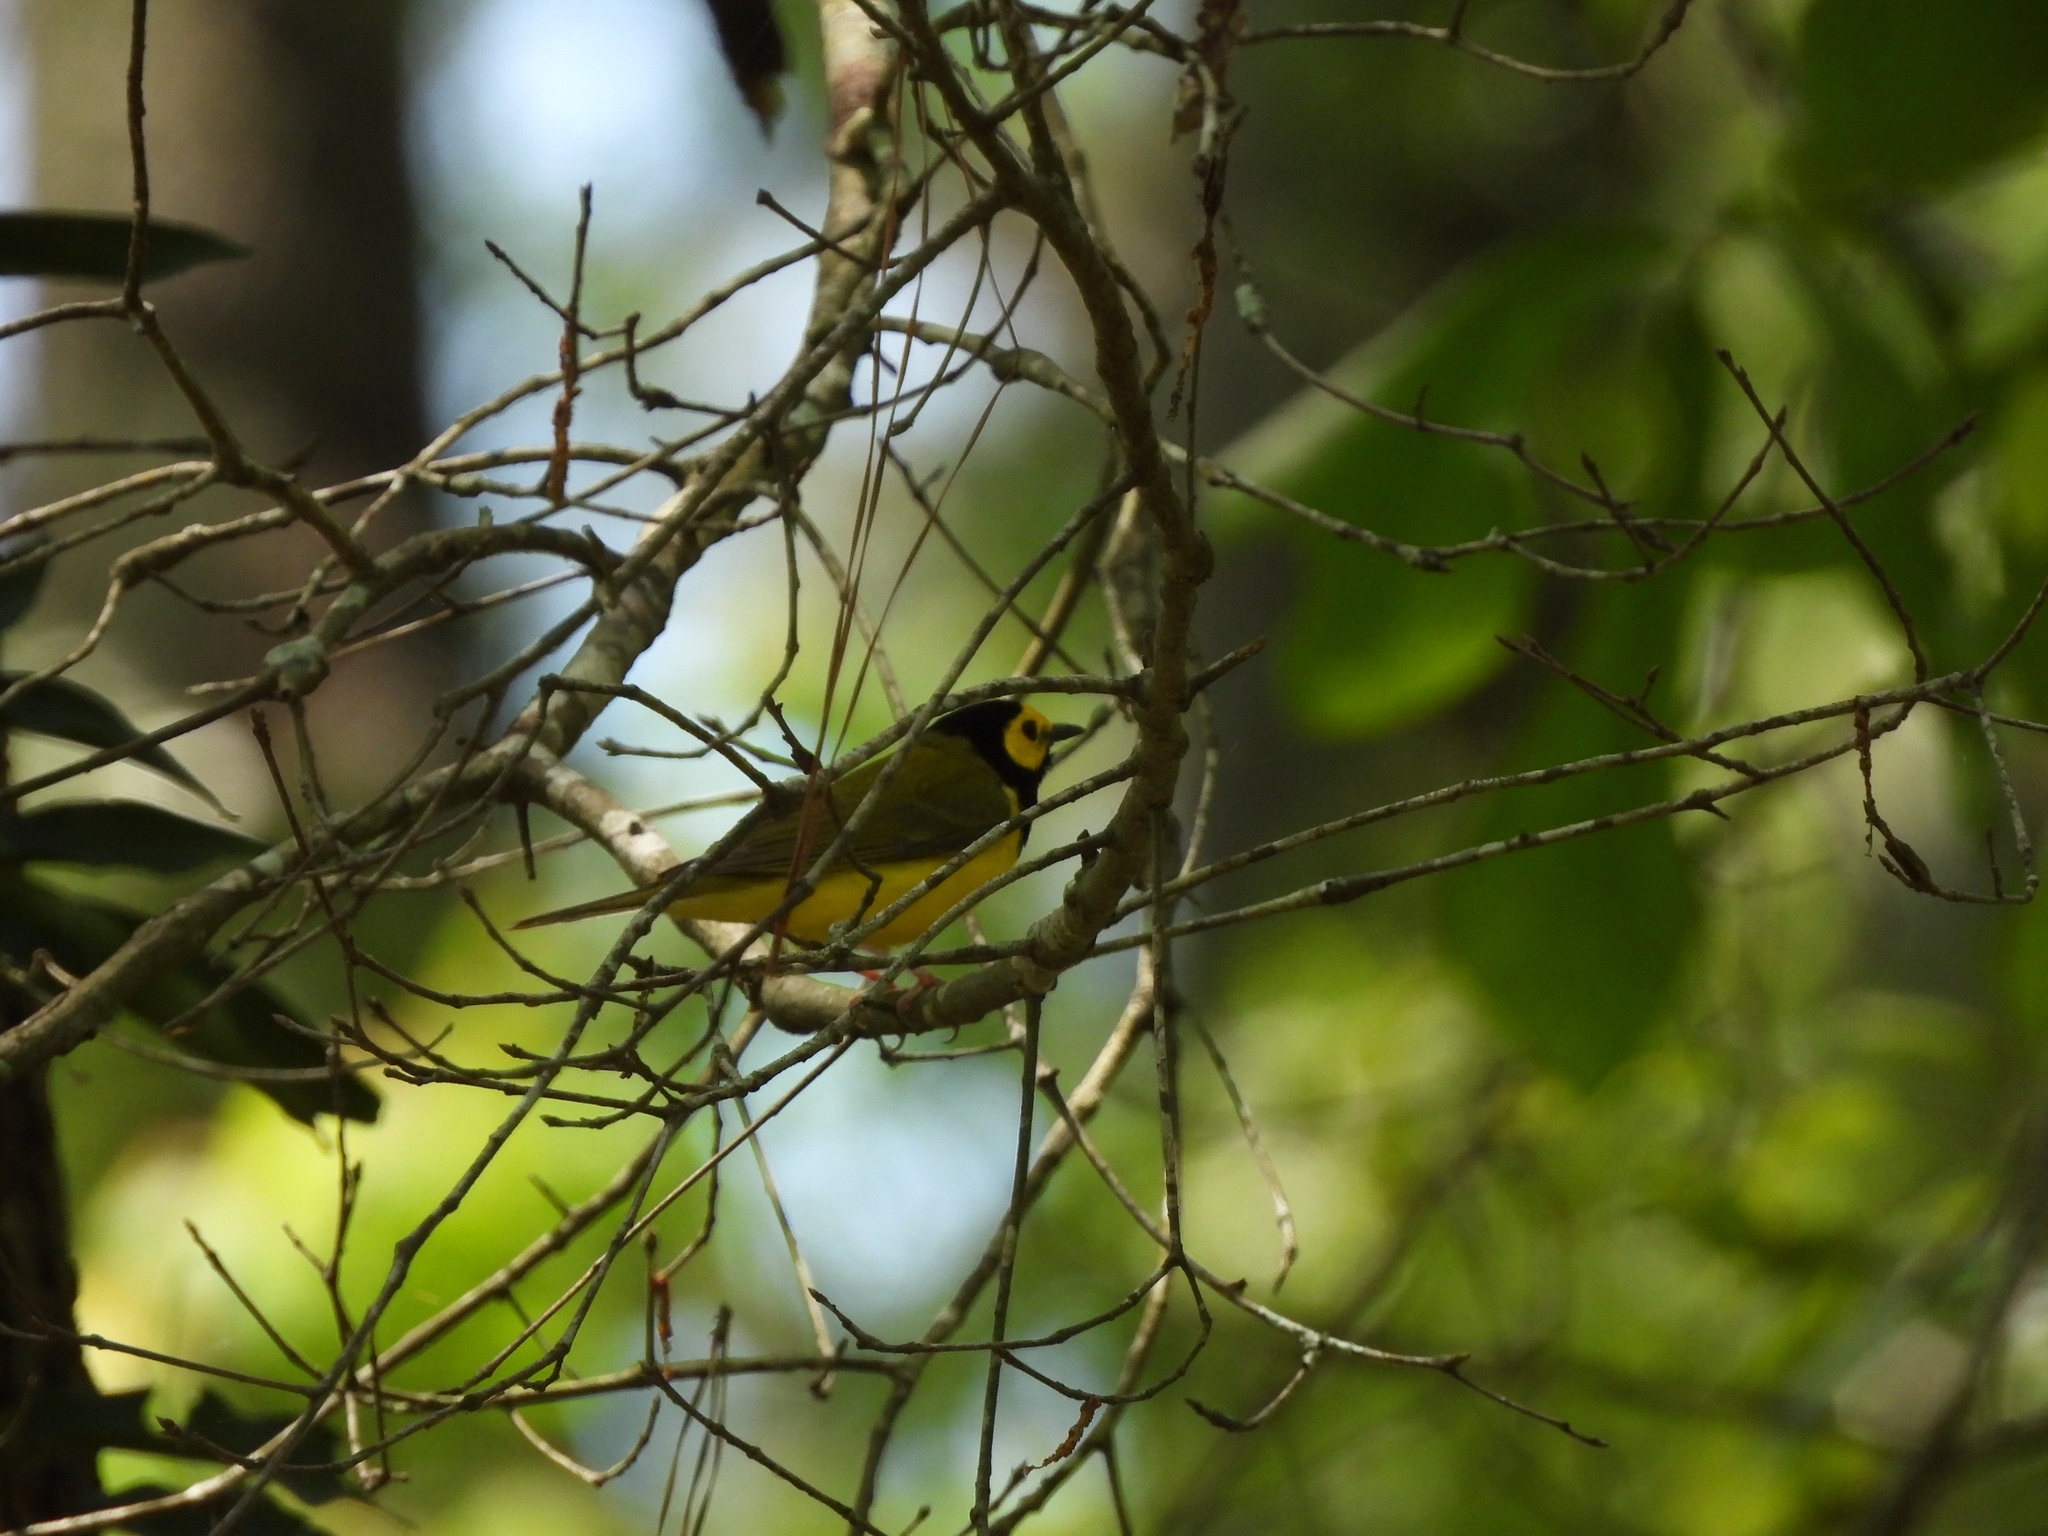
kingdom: Animalia
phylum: Chordata
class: Aves
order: Passeriformes
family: Parulidae
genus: Setophaga
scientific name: Setophaga citrina
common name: Hooded warbler
